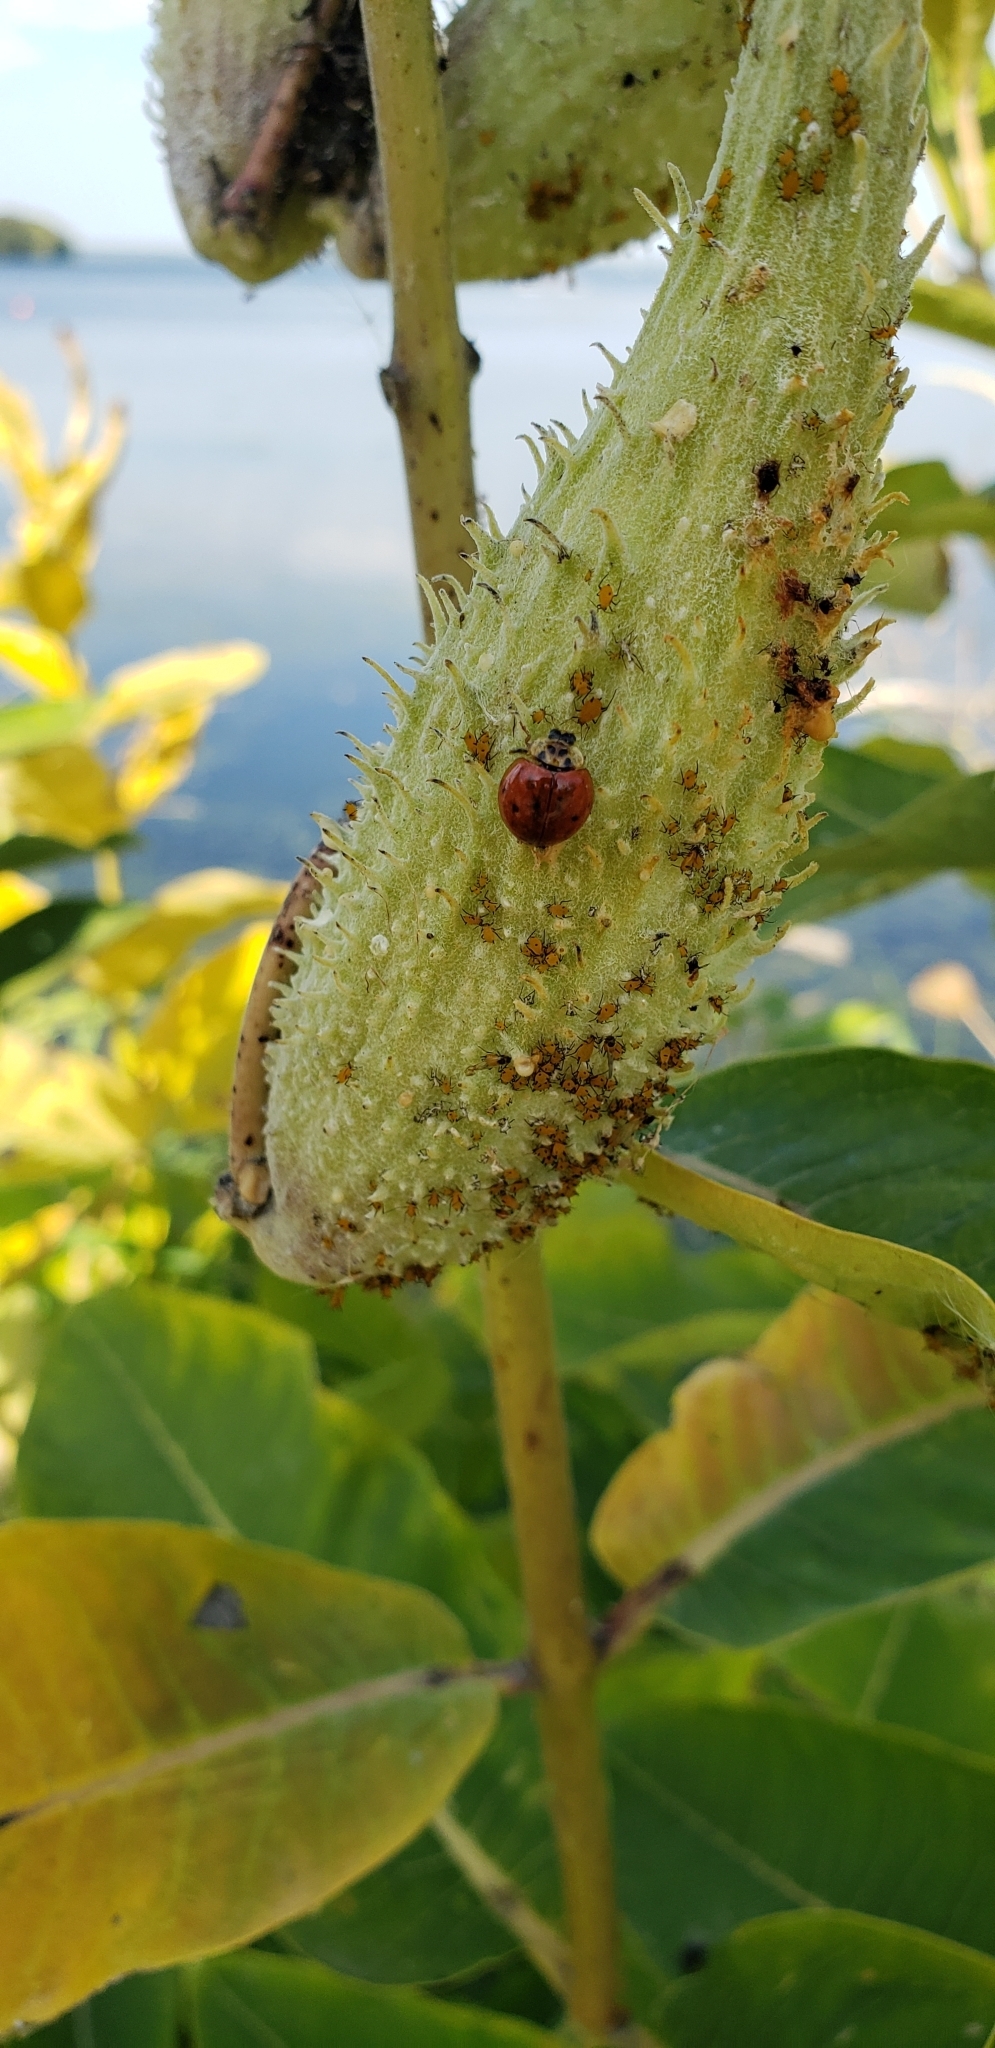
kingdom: Animalia
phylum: Arthropoda
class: Insecta
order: Coleoptera
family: Coccinellidae
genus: Harmonia
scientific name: Harmonia axyridis
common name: Harlequin ladybird
